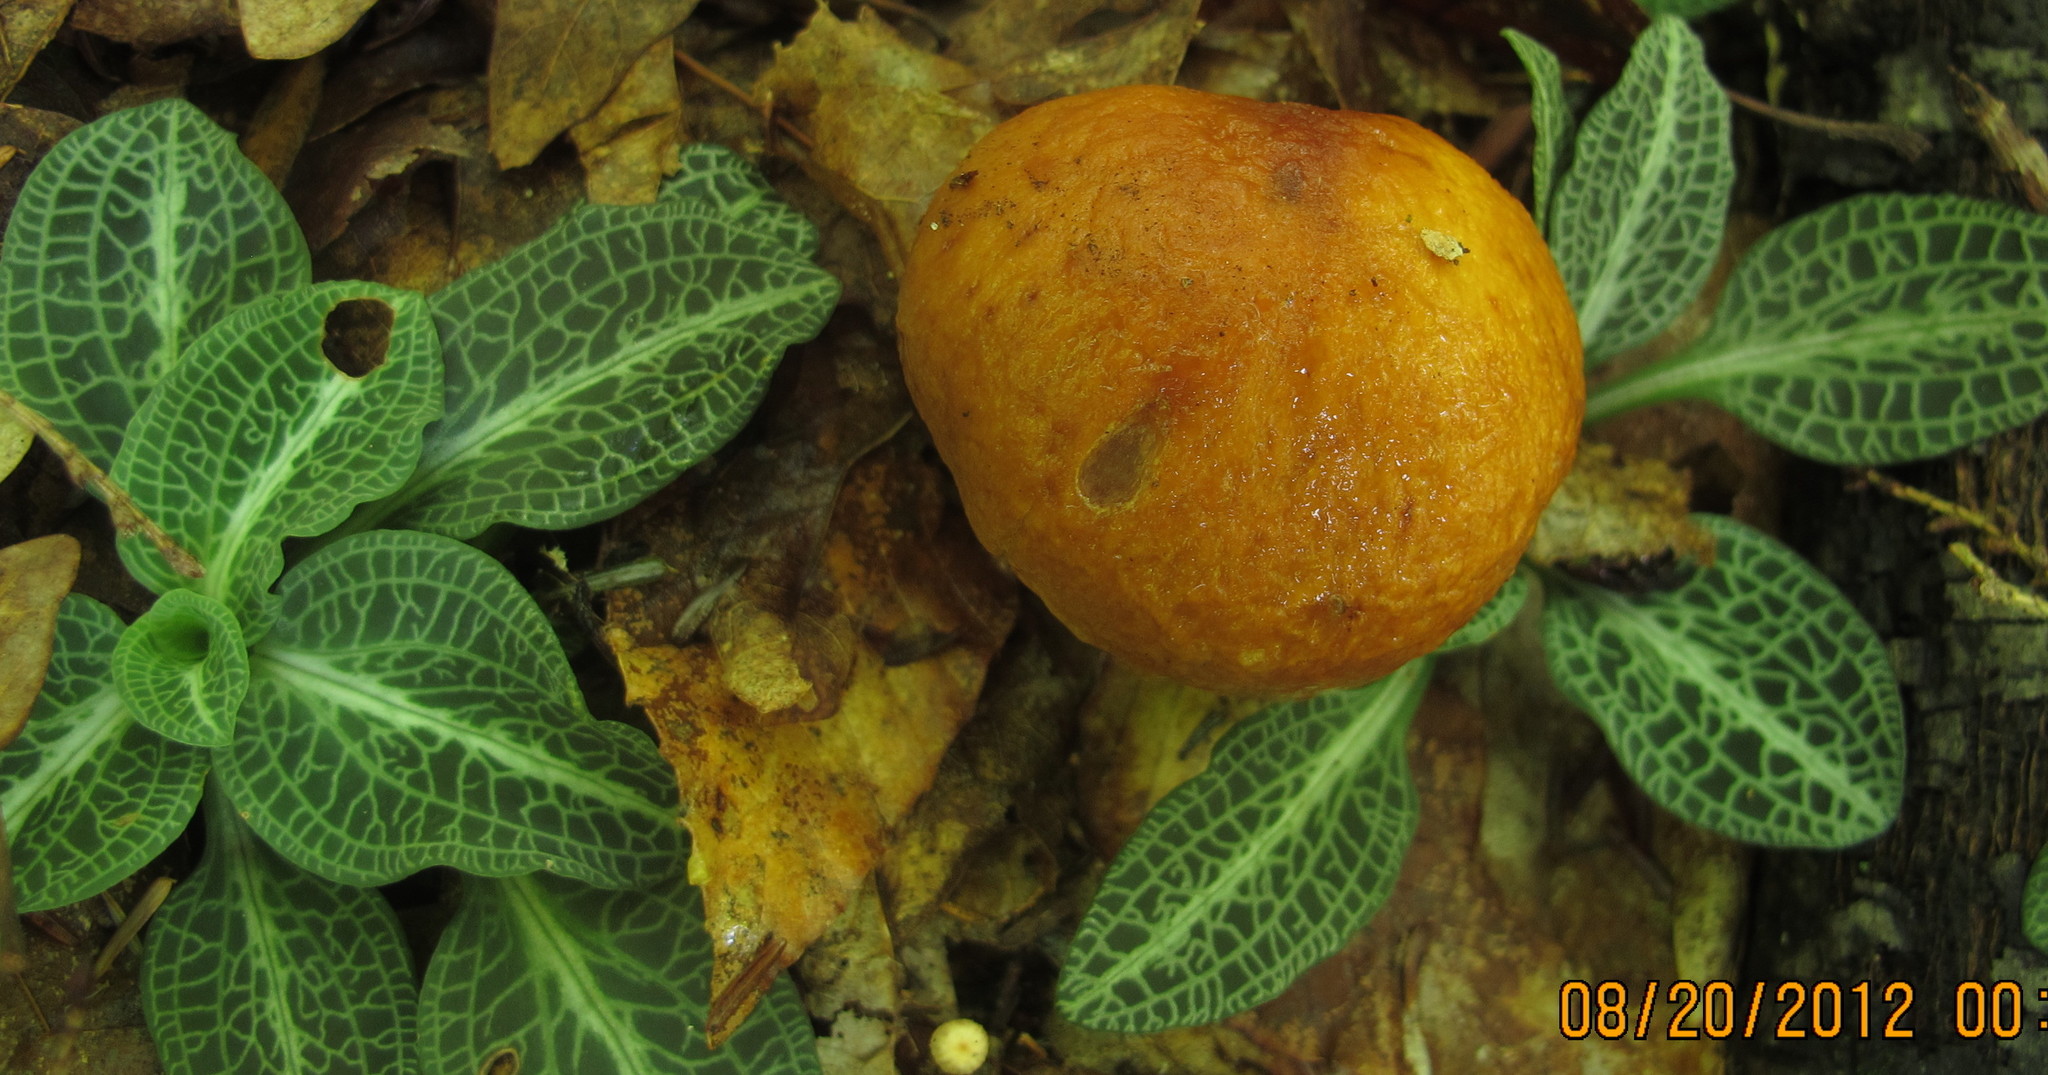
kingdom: Fungi
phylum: Basidiomycota
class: Agaricomycetes
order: Agaricales
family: Cortinariaceae
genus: Cortinarius
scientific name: Cortinarius corrugatus
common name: Wrinkled cortinarius
